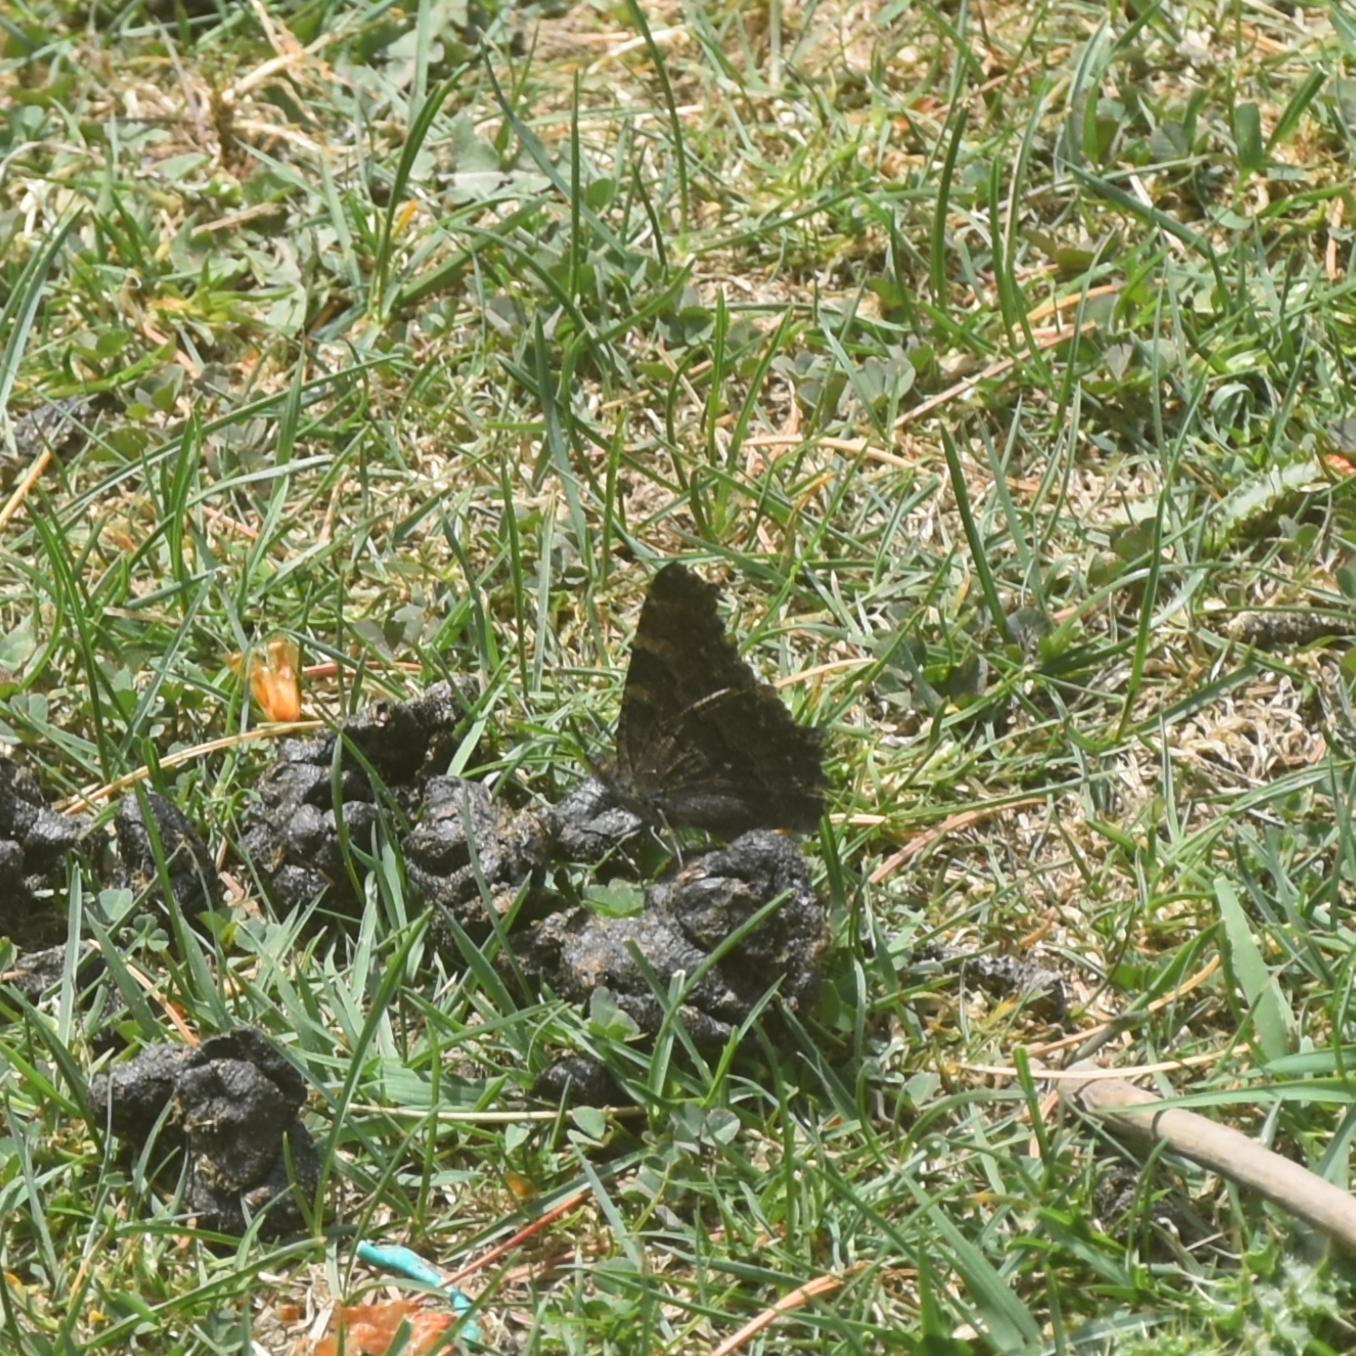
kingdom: Animalia
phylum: Arthropoda
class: Insecta
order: Lepidoptera
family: Nymphalidae
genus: Aglais
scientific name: Aglais caschmirensis
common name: Indian tortoiseshell
